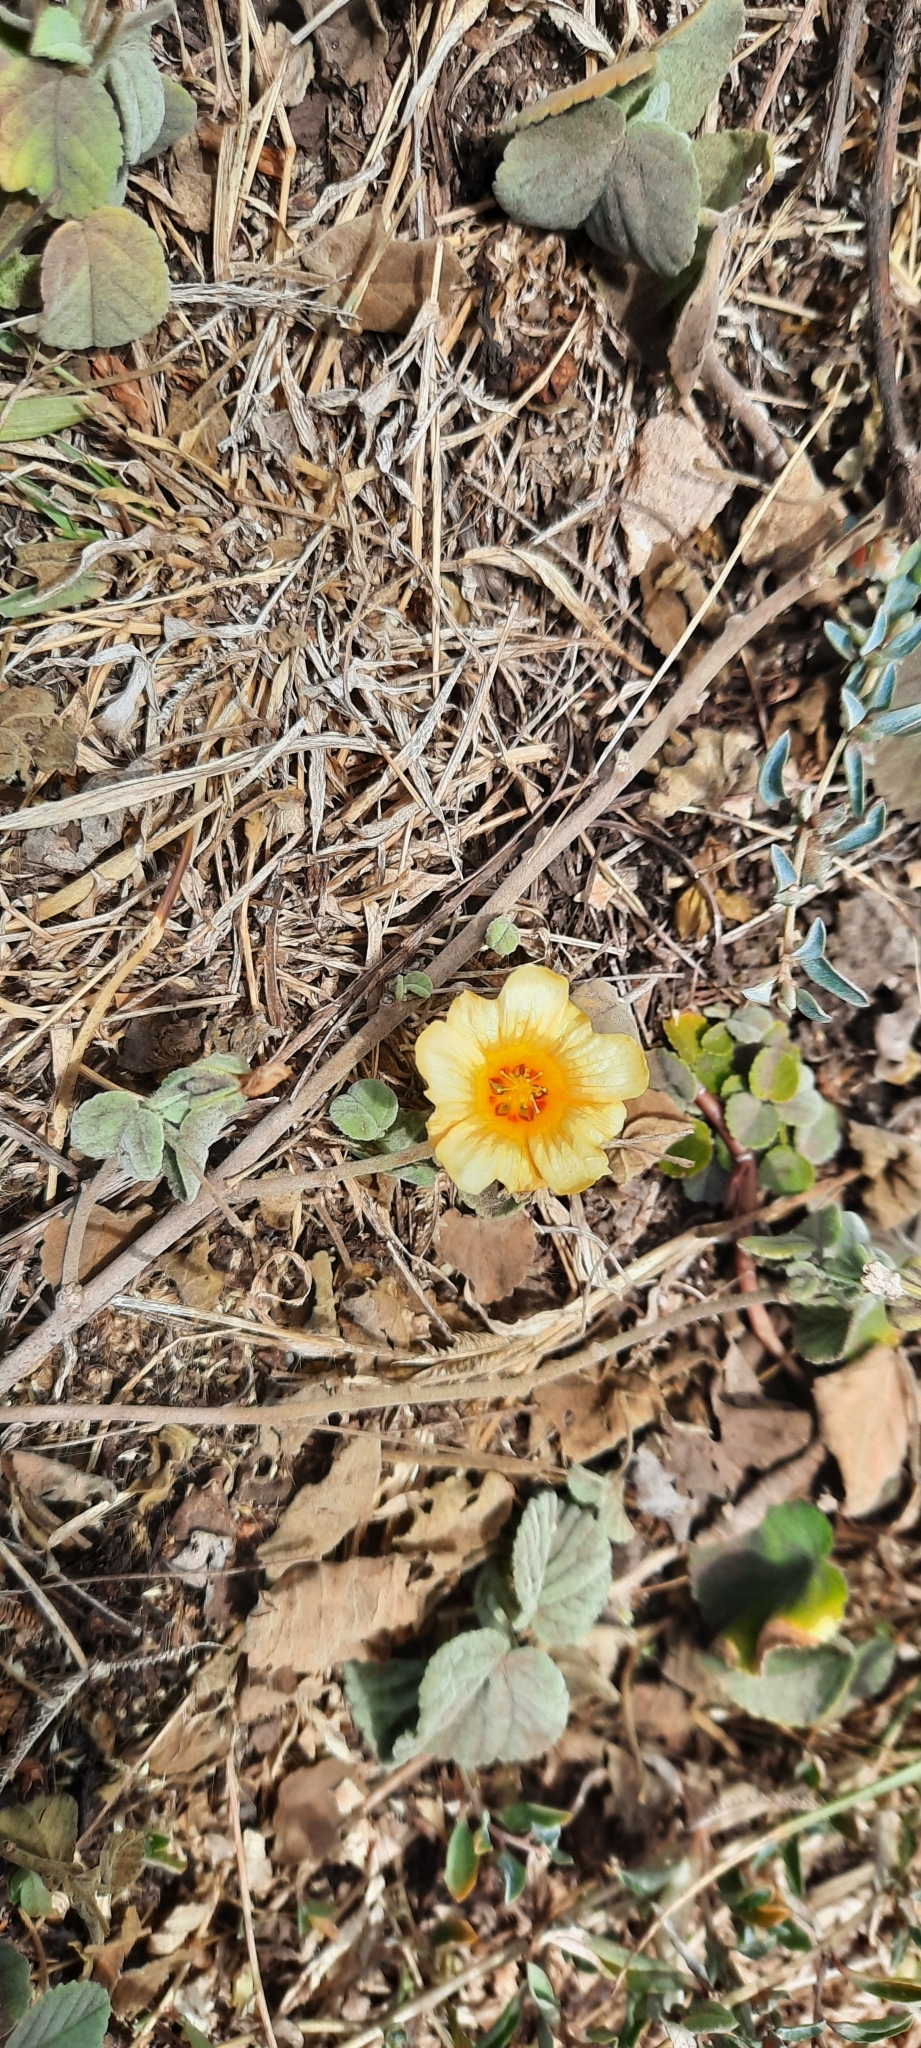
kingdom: Plantae
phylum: Tracheophyta
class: Magnoliopsida
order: Malvales
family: Malvaceae
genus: Sida
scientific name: Sida fallax
